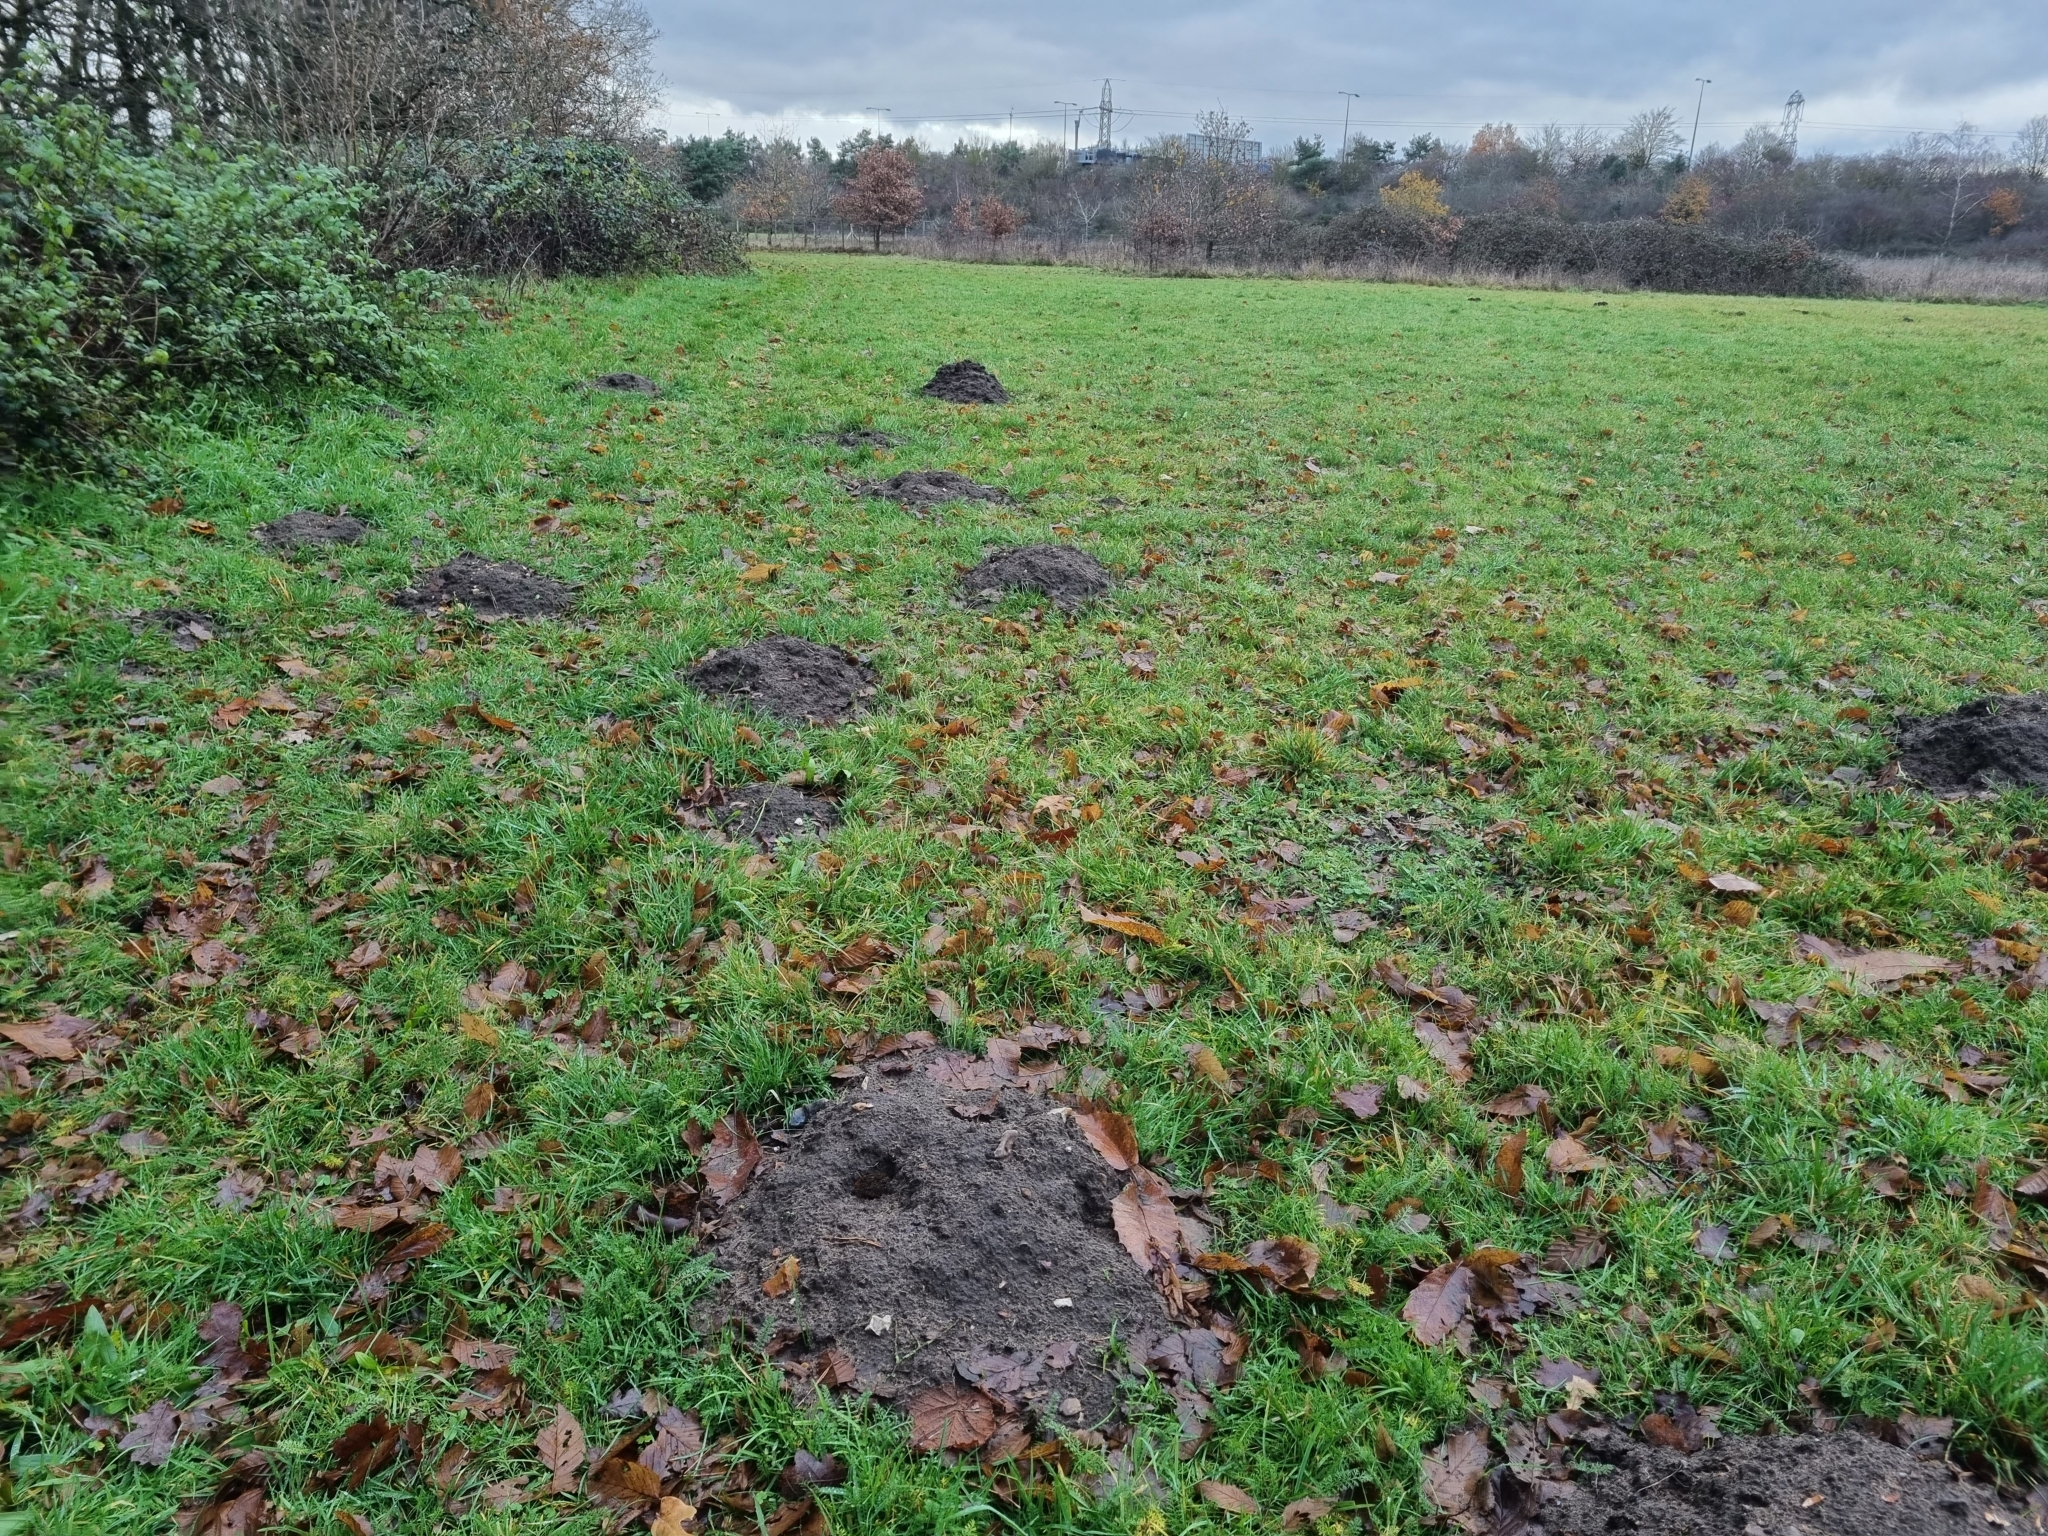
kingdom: Animalia
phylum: Chordata
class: Mammalia
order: Soricomorpha
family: Talpidae
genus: Talpa
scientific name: Talpa europaea
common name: European mole
